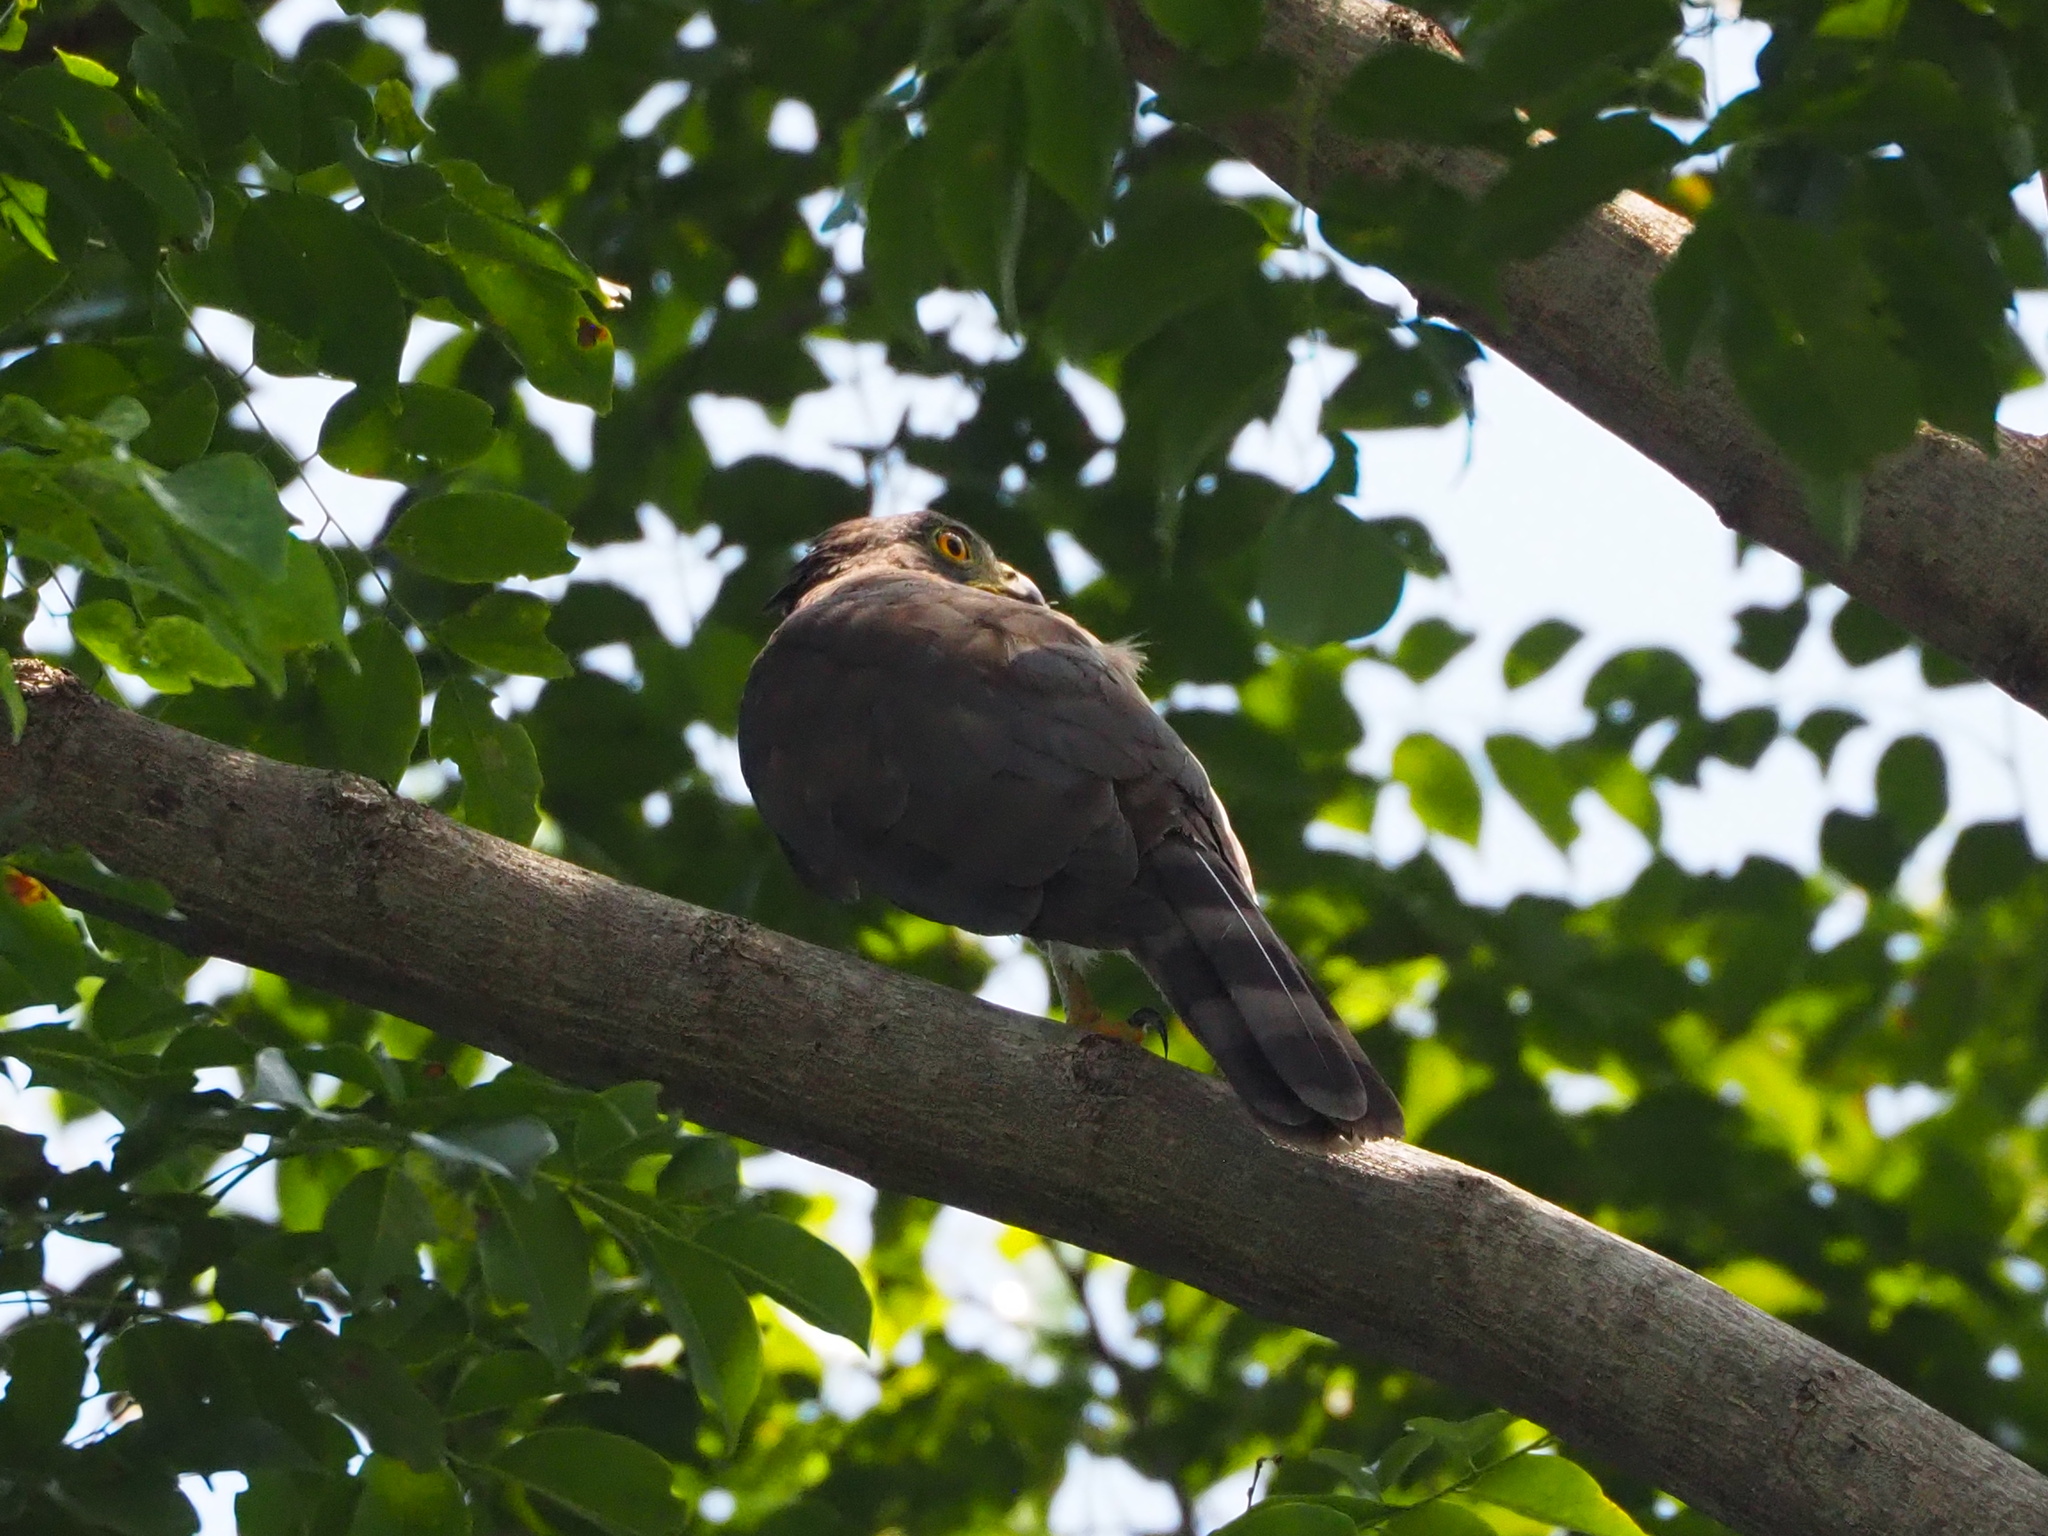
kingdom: Animalia
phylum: Chordata
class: Aves
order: Accipitriformes
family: Accipitridae
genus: Accipiter
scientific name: Accipiter trivirgatus
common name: Crested goshawk
